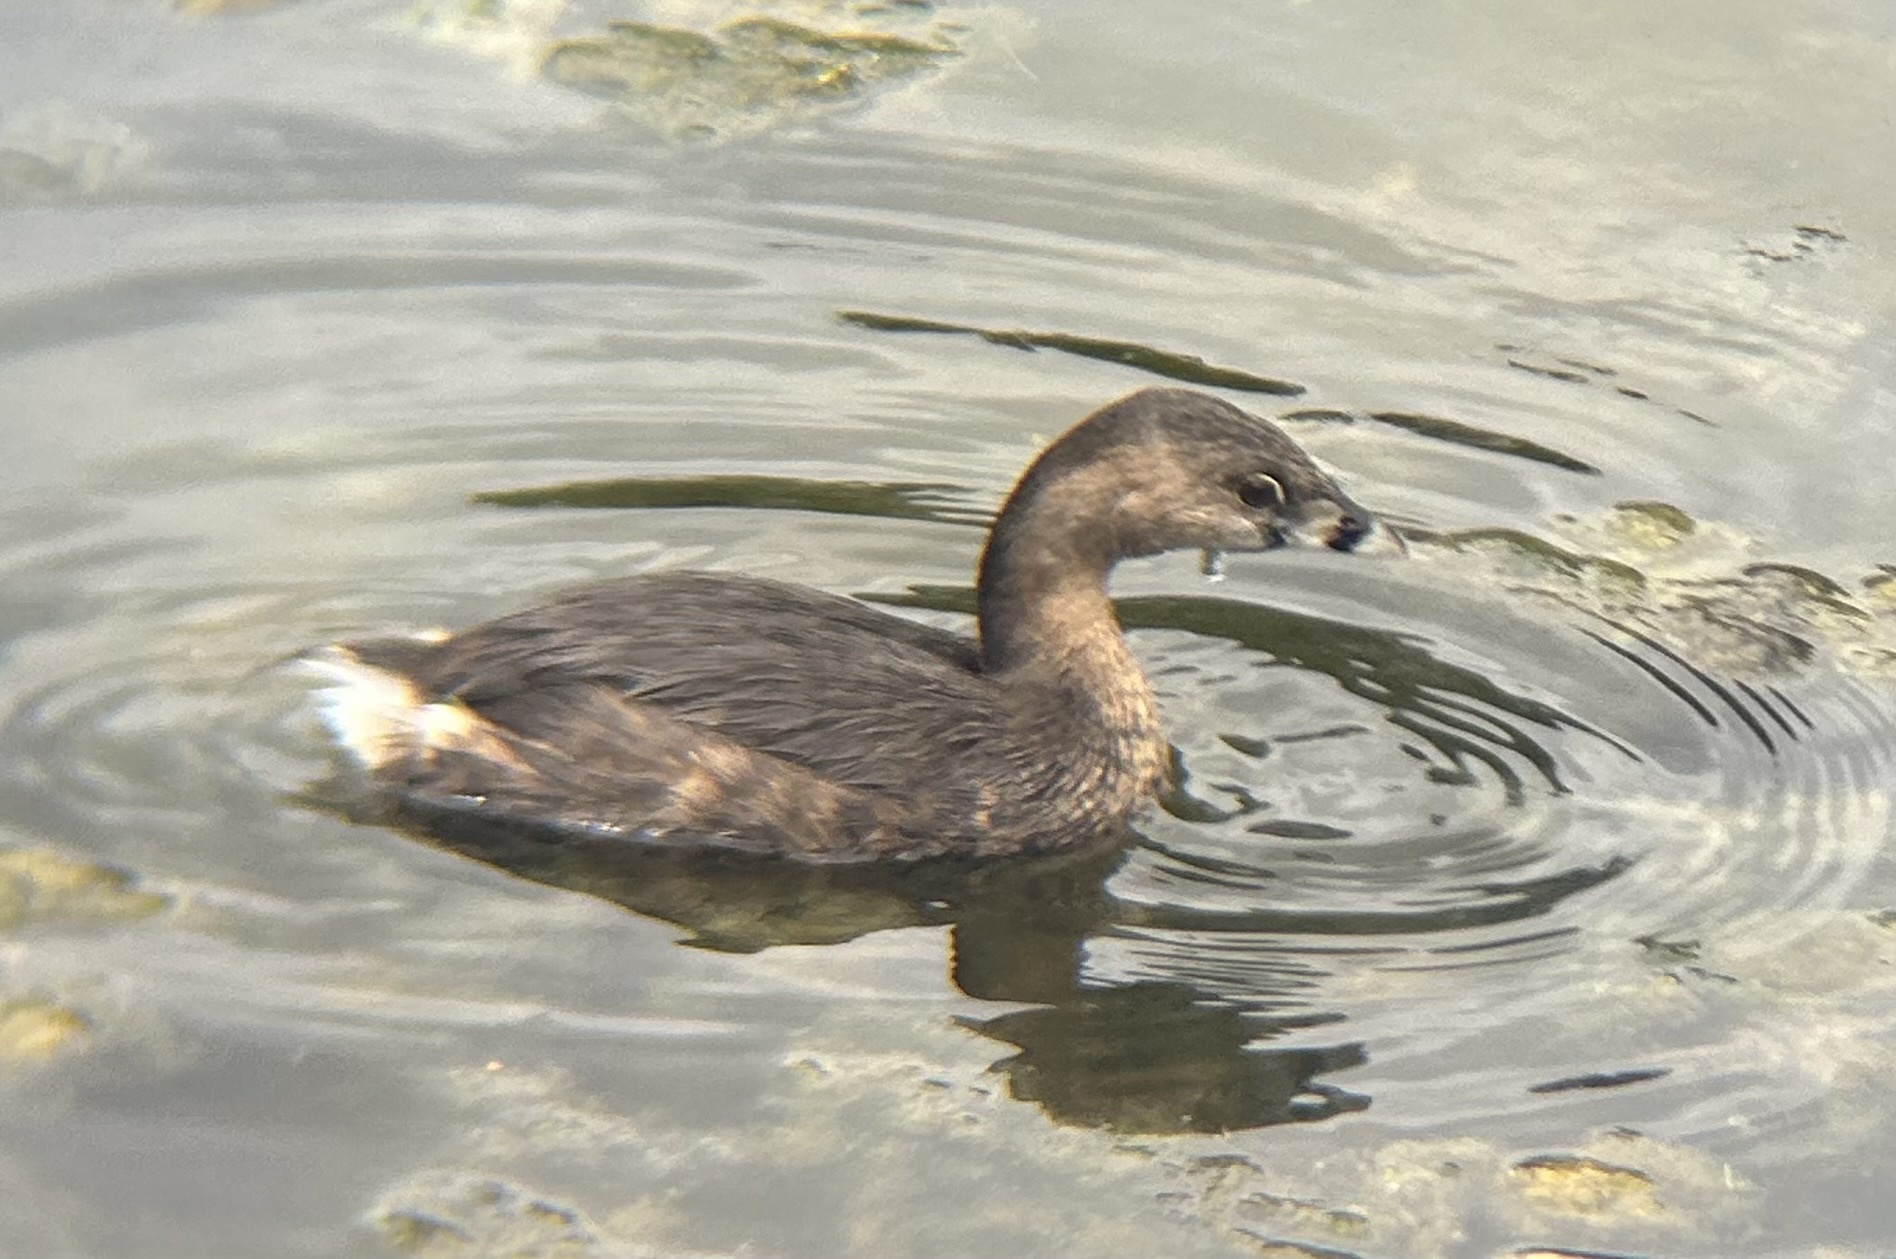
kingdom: Animalia
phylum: Chordata
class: Aves
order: Podicipediformes
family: Podicipedidae
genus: Podilymbus
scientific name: Podilymbus podiceps
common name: Pied-billed grebe
